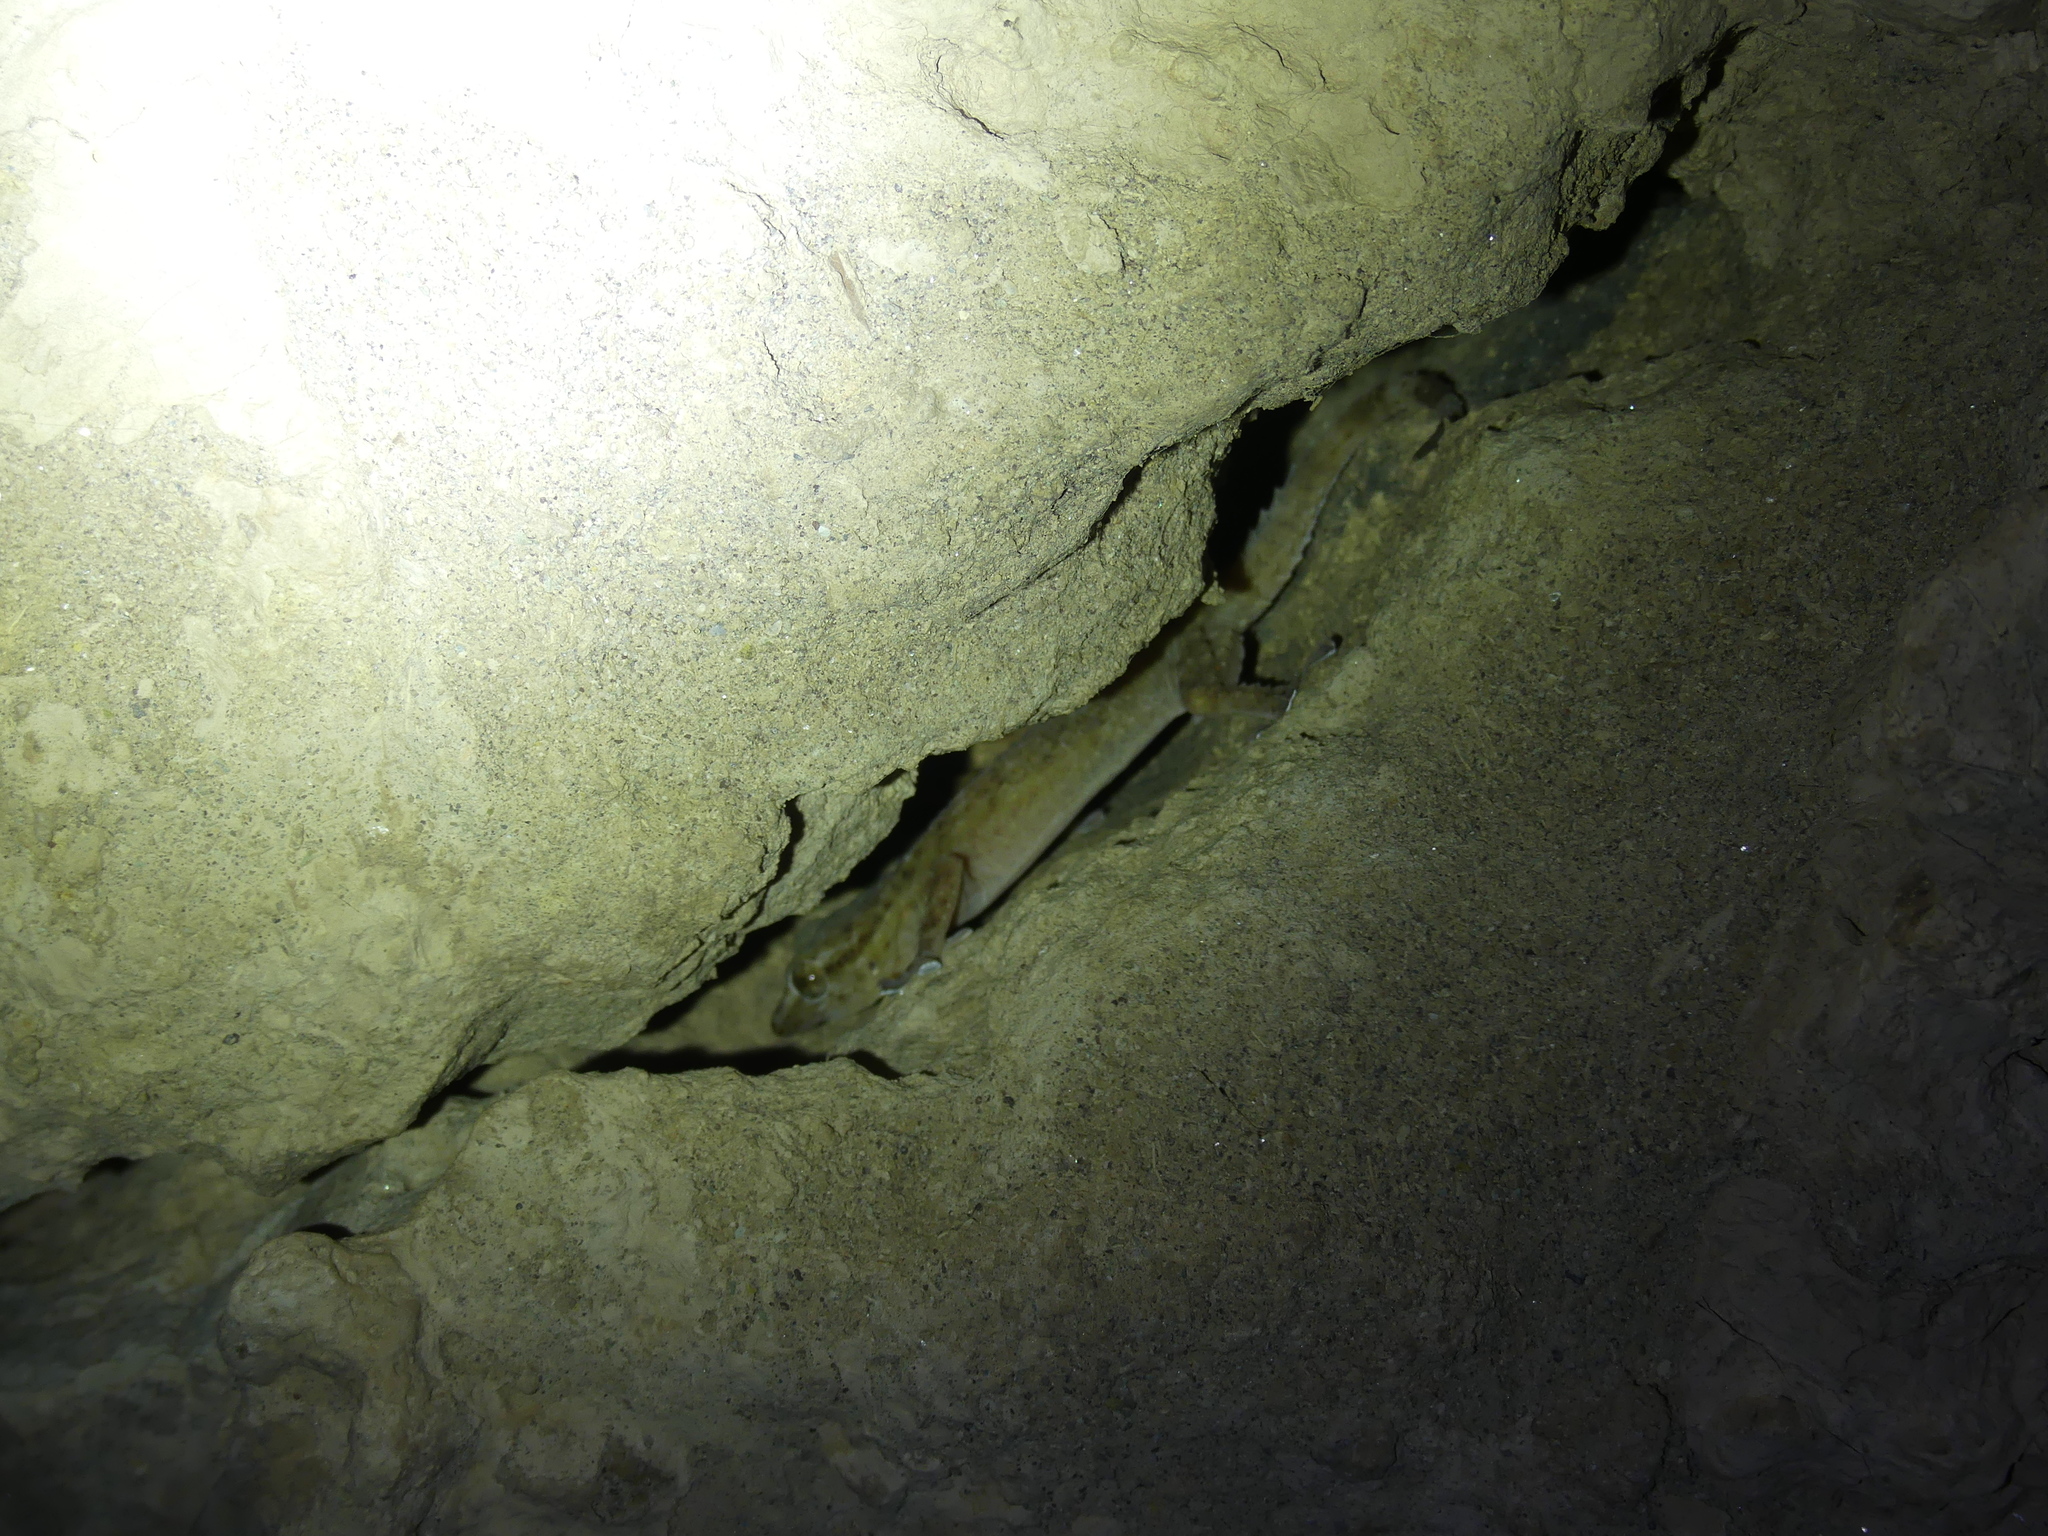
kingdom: Animalia
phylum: Chordata
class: Squamata
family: Phyllodactylidae
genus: Tarentola
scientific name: Tarentola boehmei
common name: Böhme's gecko
